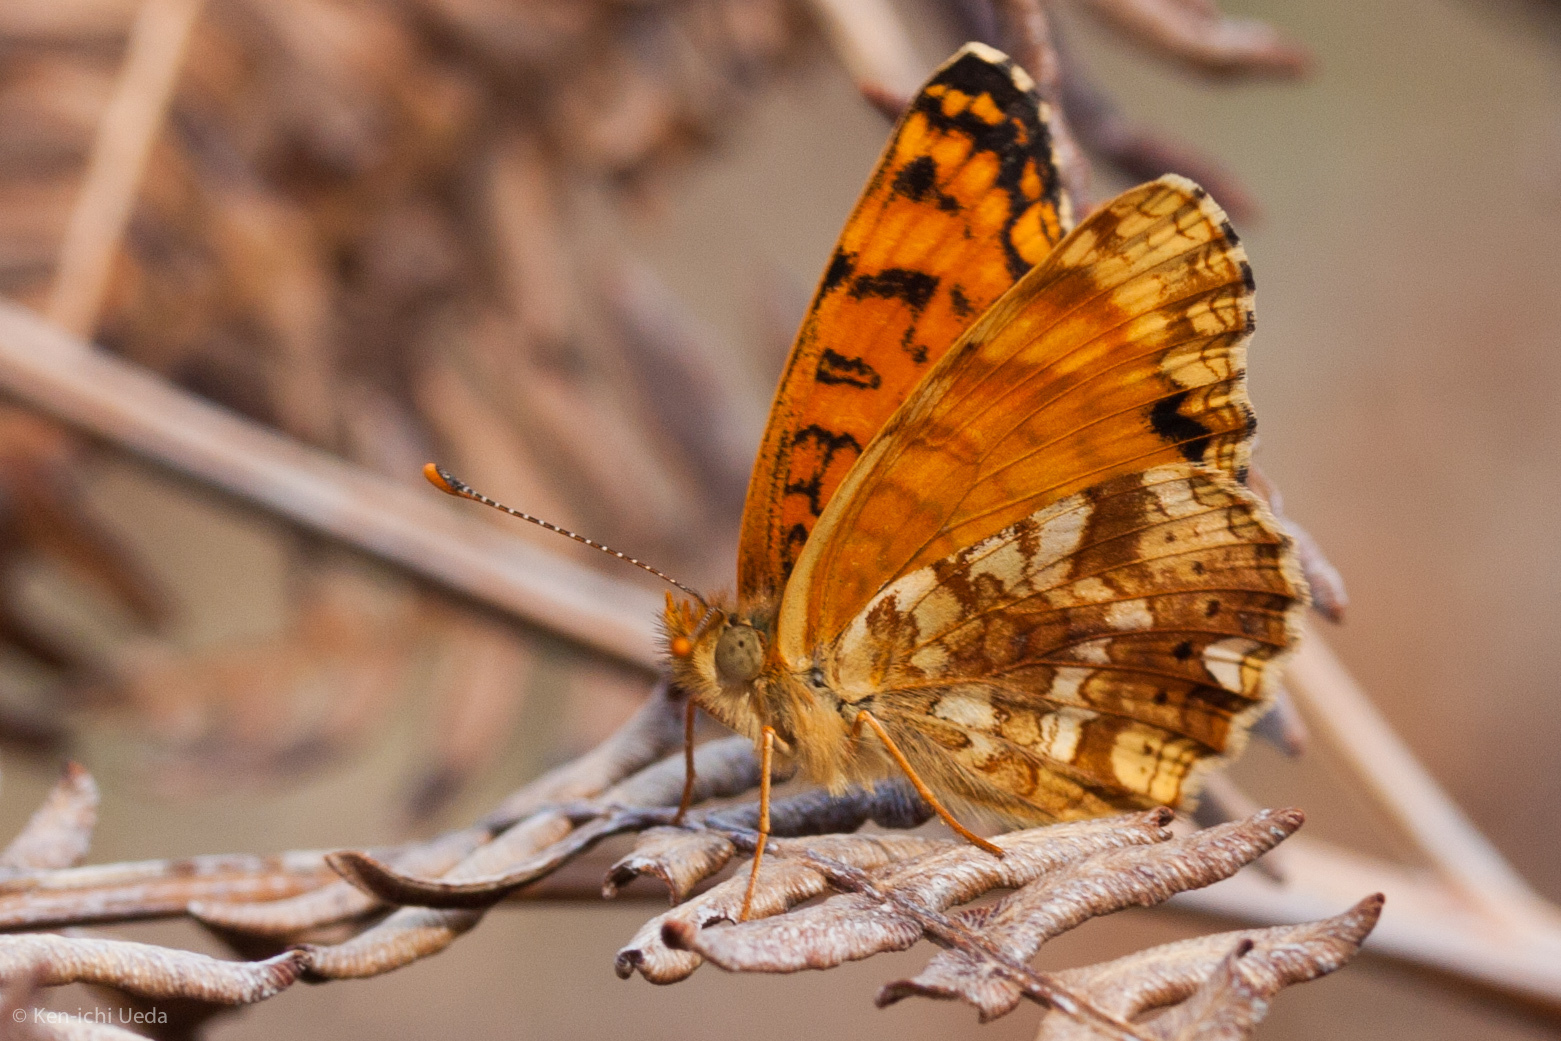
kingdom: Animalia
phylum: Arthropoda
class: Insecta
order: Lepidoptera
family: Nymphalidae
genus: Eresia
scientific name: Eresia aveyrona
